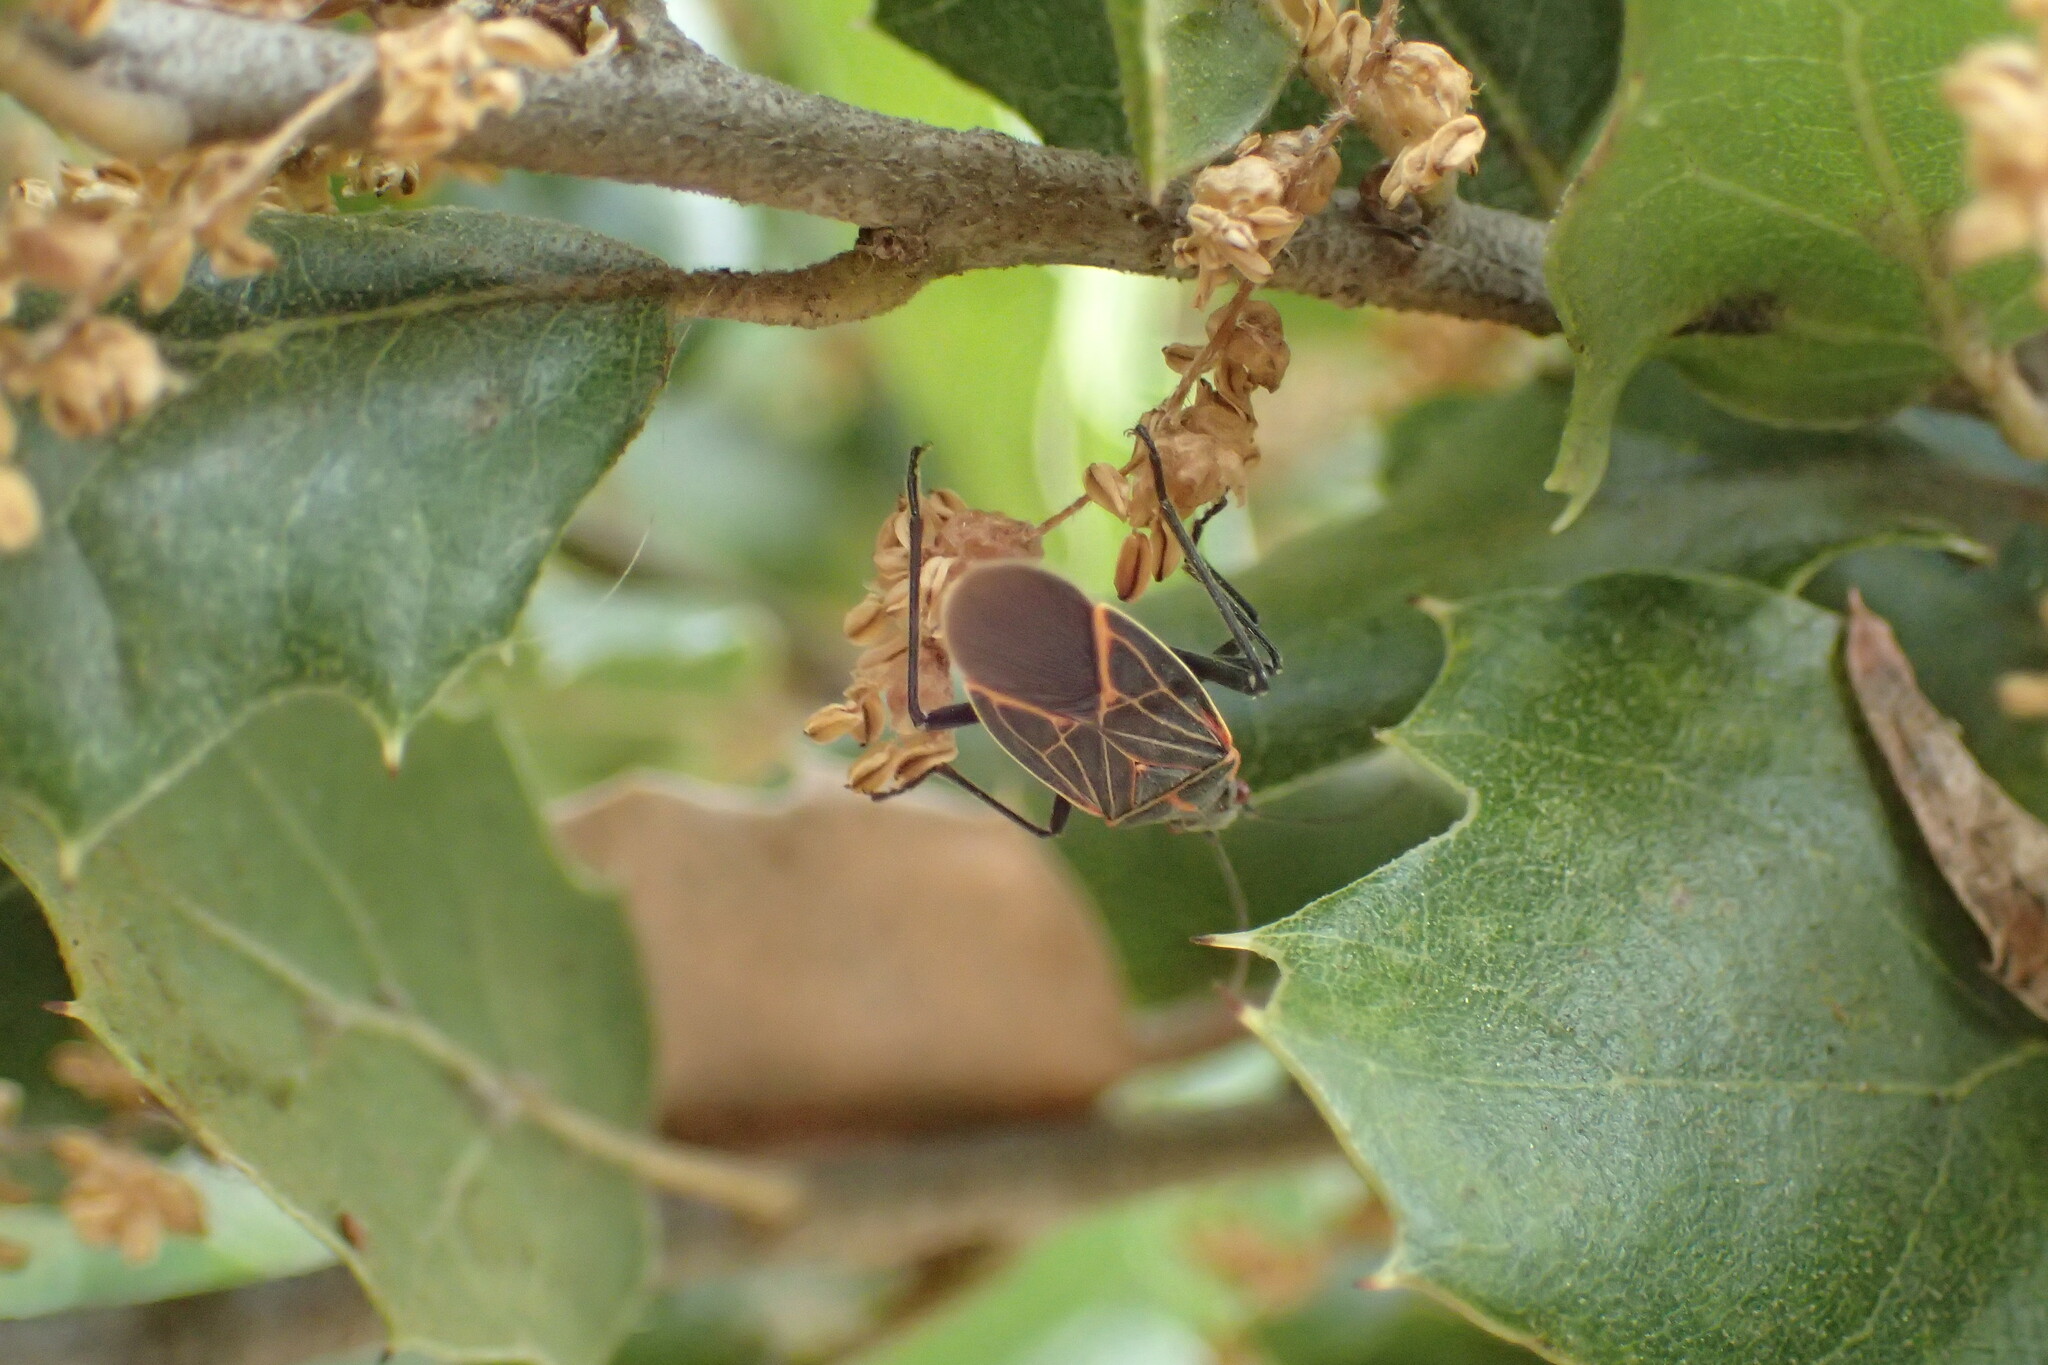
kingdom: Animalia
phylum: Arthropoda
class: Insecta
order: Hemiptera
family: Rhopalidae
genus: Boisea
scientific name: Boisea rubrolineata
